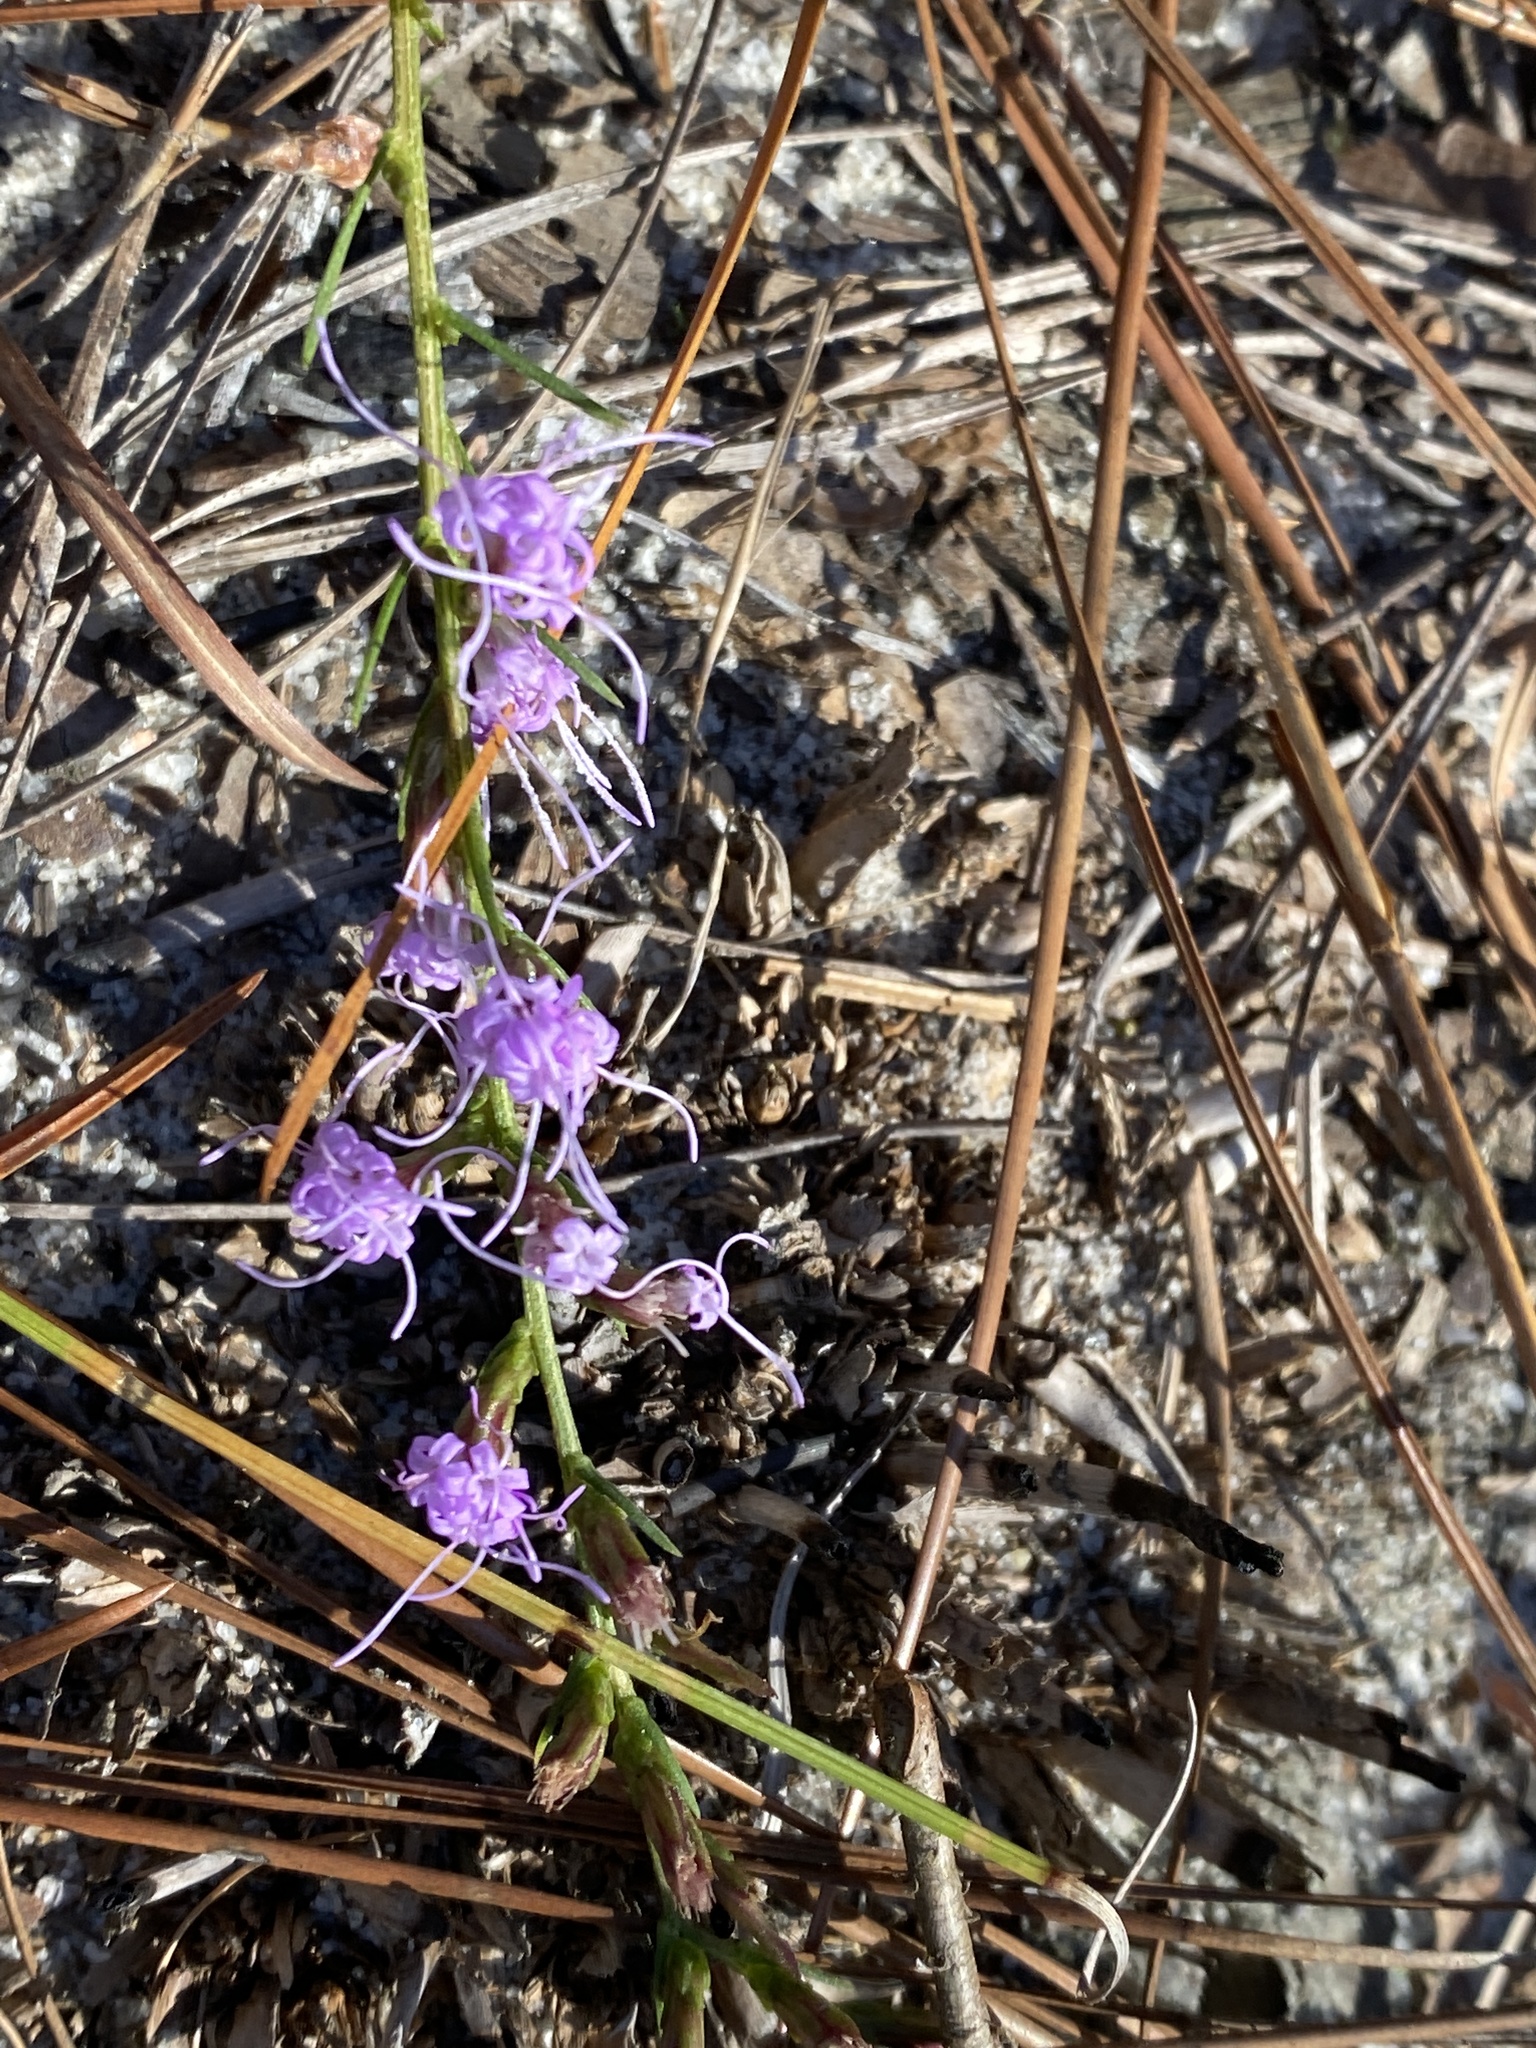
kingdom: Plantae
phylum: Tracheophyta
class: Magnoliopsida
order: Asterales
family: Asteraceae
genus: Liatris
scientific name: Liatris cokeri
